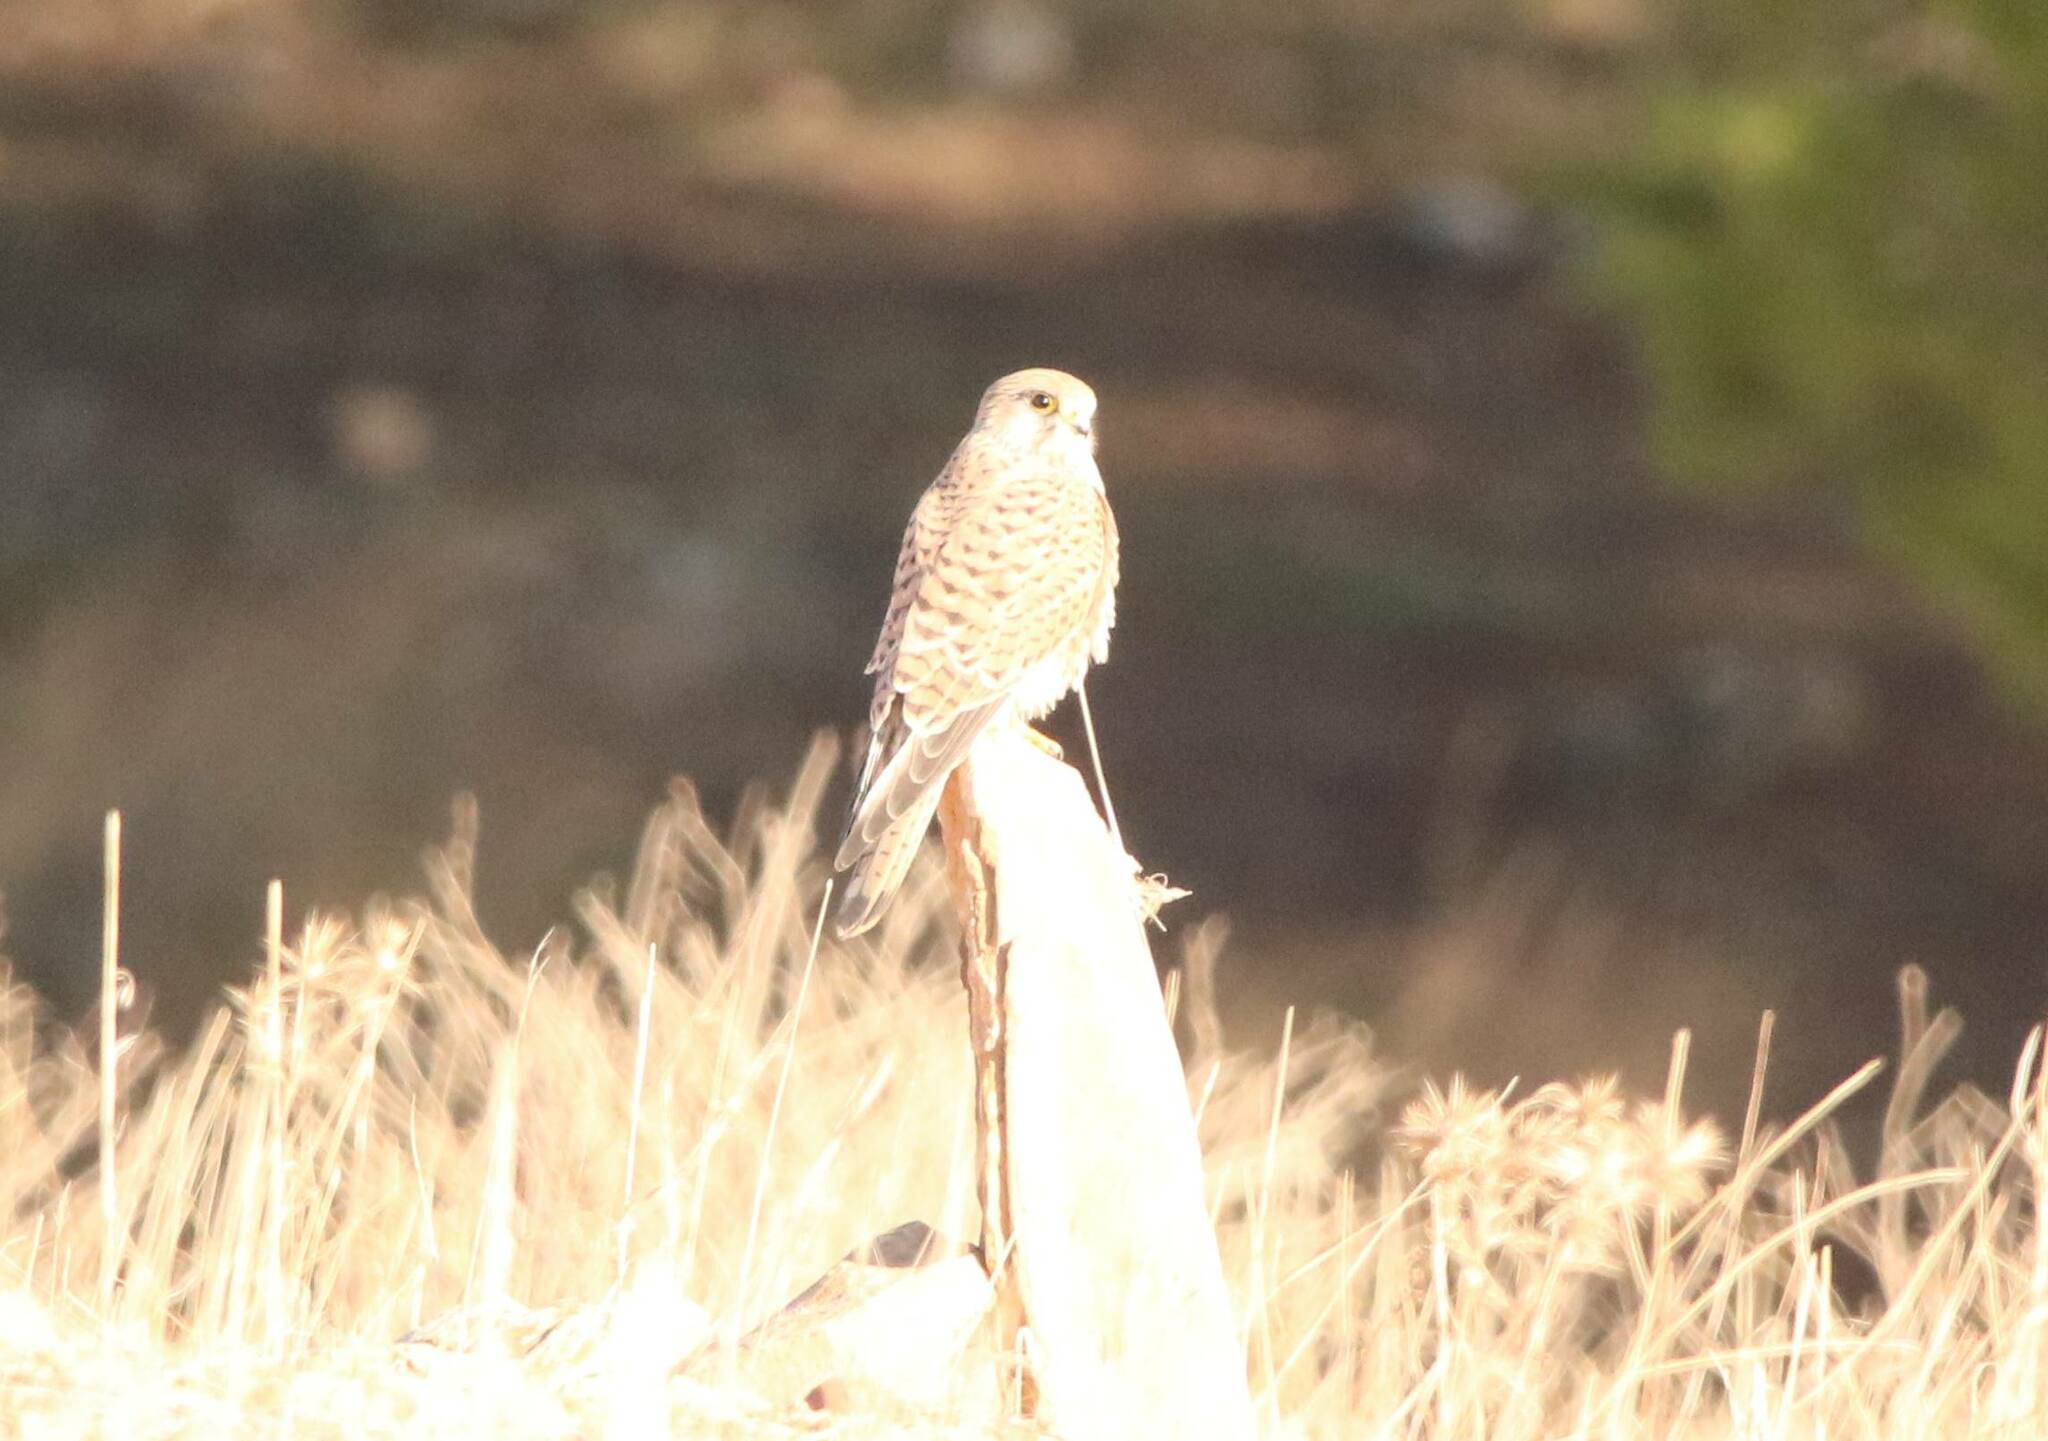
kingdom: Animalia
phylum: Chordata
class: Aves
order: Falconiformes
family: Falconidae
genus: Falco
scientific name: Falco tinnunculus
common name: Common kestrel
